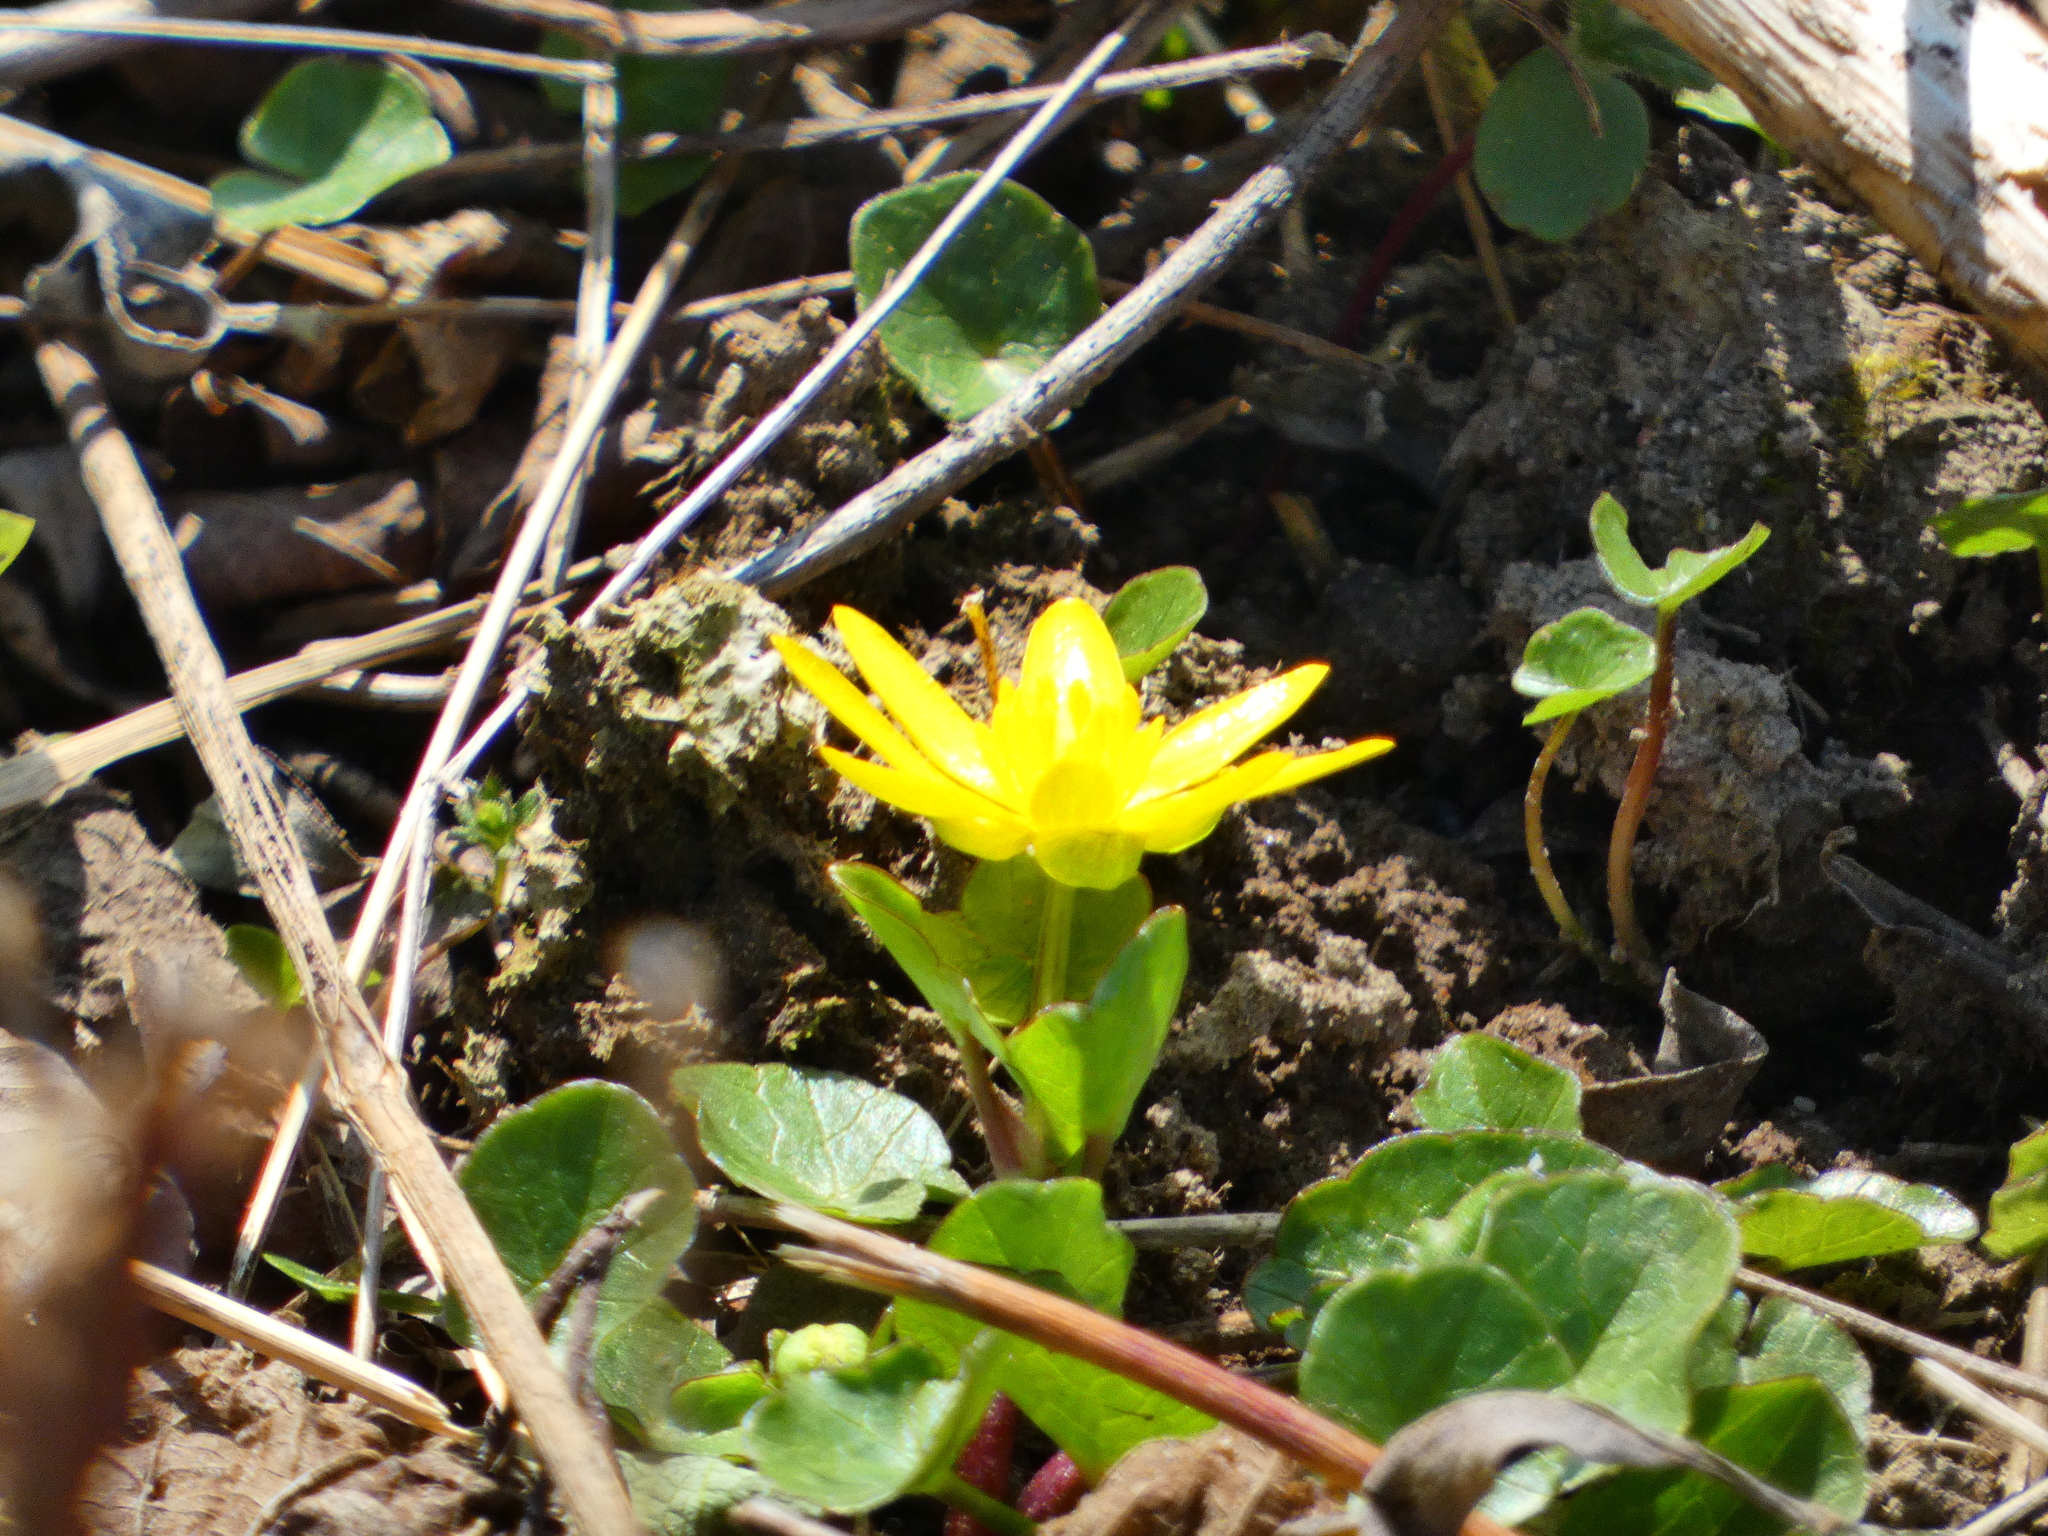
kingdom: Plantae
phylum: Tracheophyta
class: Magnoliopsida
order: Ranunculales
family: Ranunculaceae
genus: Ficaria
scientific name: Ficaria verna
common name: Lesser celandine
